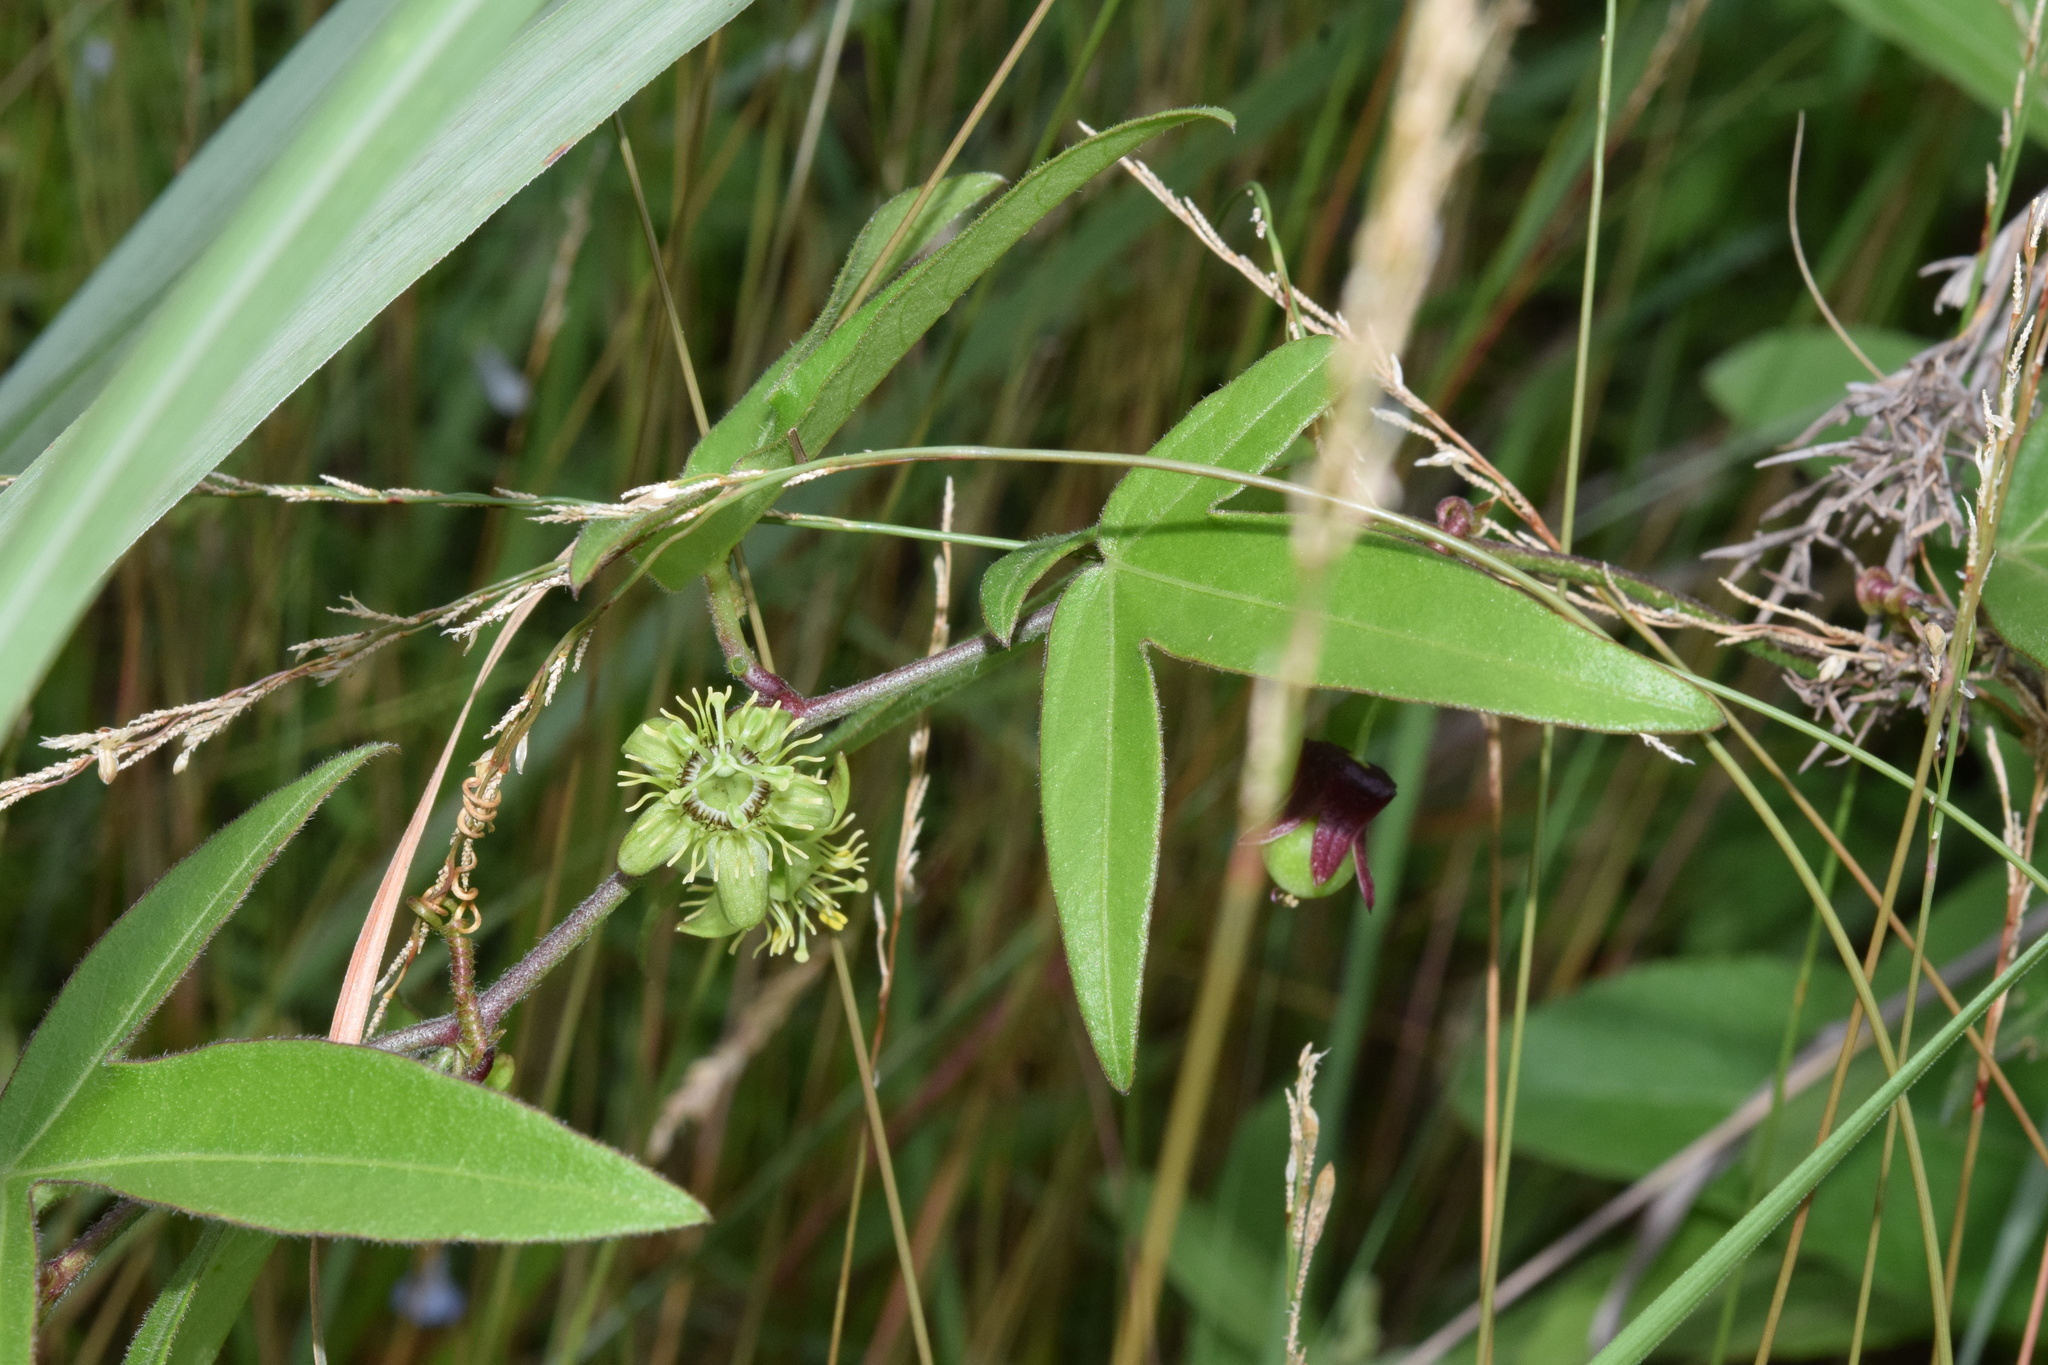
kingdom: Plantae
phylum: Tracheophyta
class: Magnoliopsida
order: Malpighiales
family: Passifloraceae
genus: Passiflora
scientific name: Passiflora suberosa
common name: Wild passionfruit
